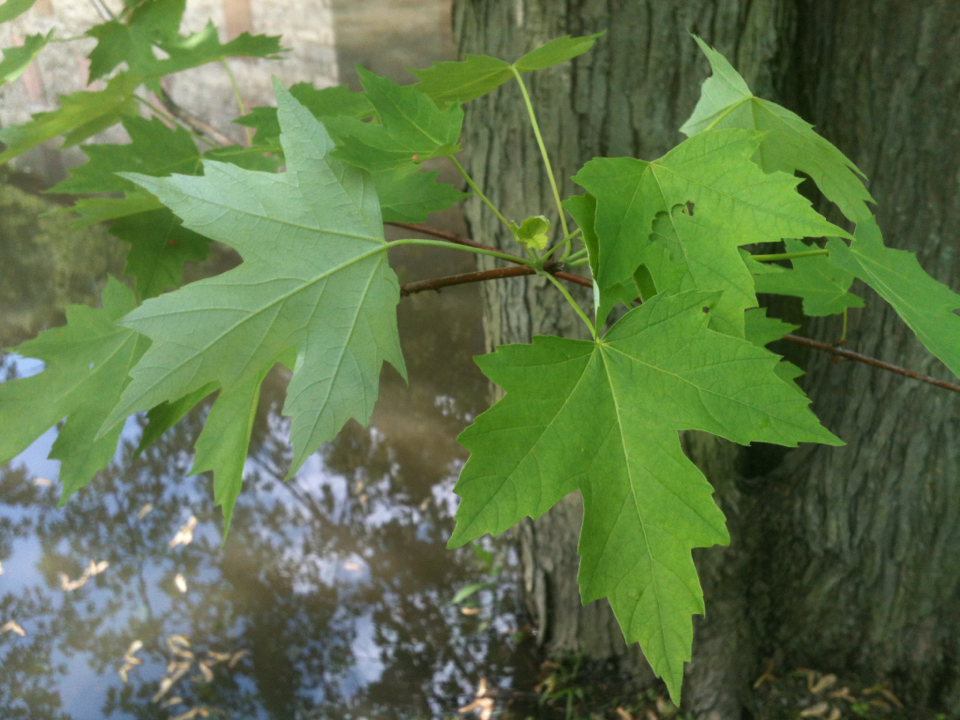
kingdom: Plantae
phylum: Tracheophyta
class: Magnoliopsida
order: Sapindales
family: Sapindaceae
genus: Acer
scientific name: Acer saccharinum
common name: Silver maple
